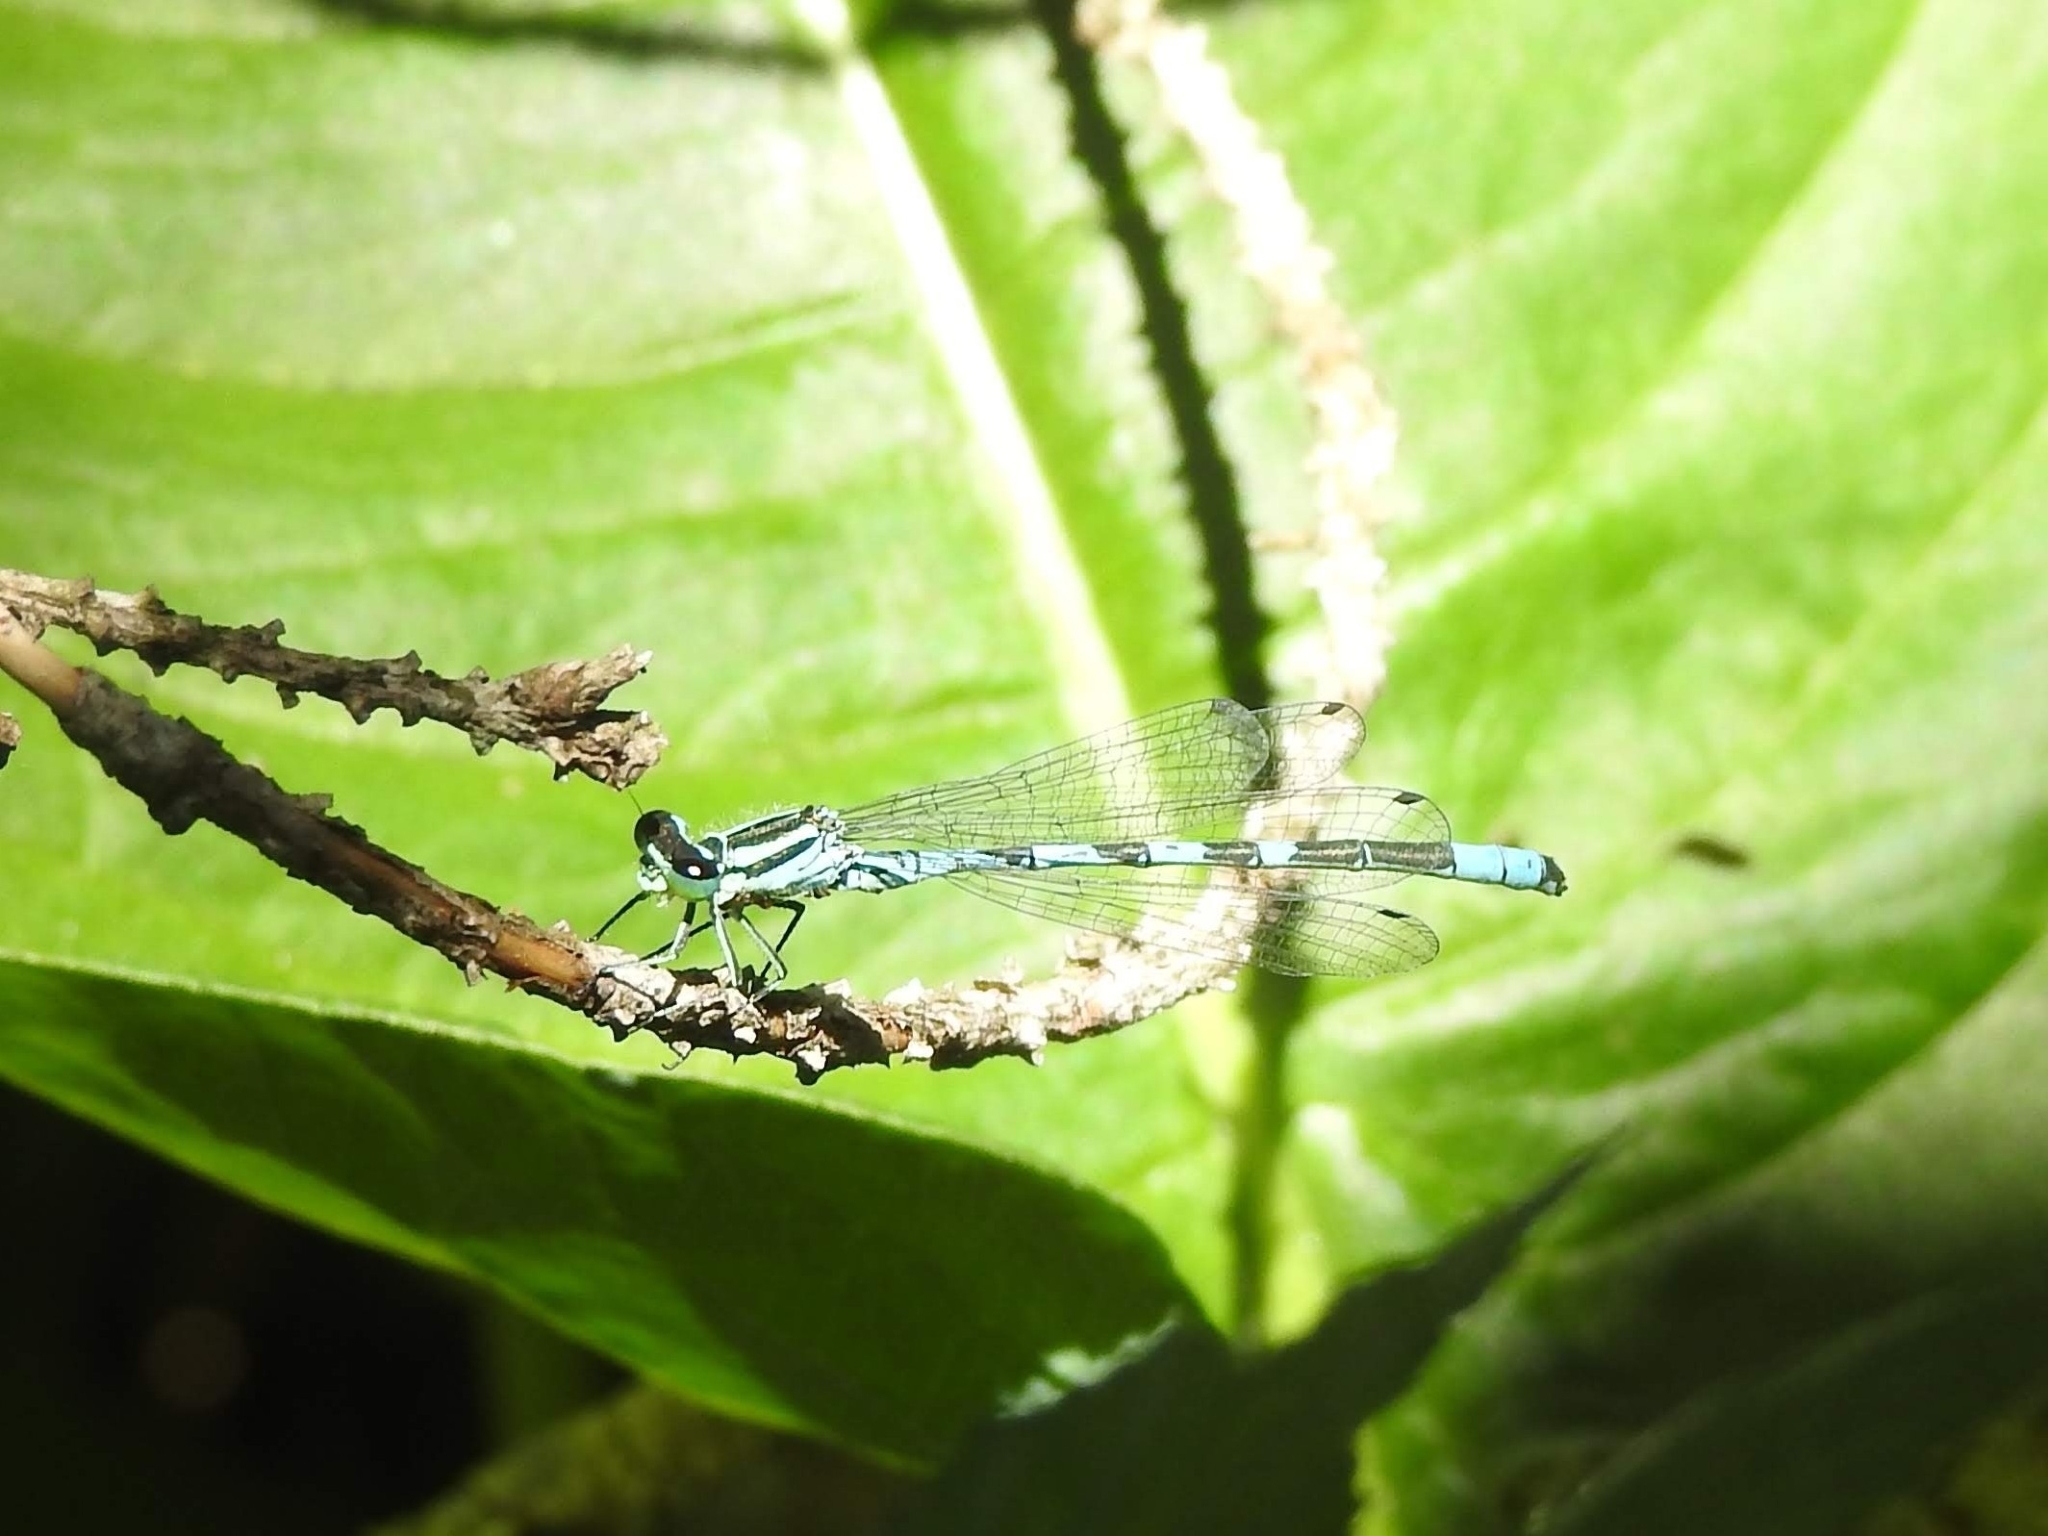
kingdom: Animalia
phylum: Arthropoda
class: Insecta
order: Odonata
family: Coenagrionidae
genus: Coenagrion
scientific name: Coenagrion hastulatum
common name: Spearhead bluet
